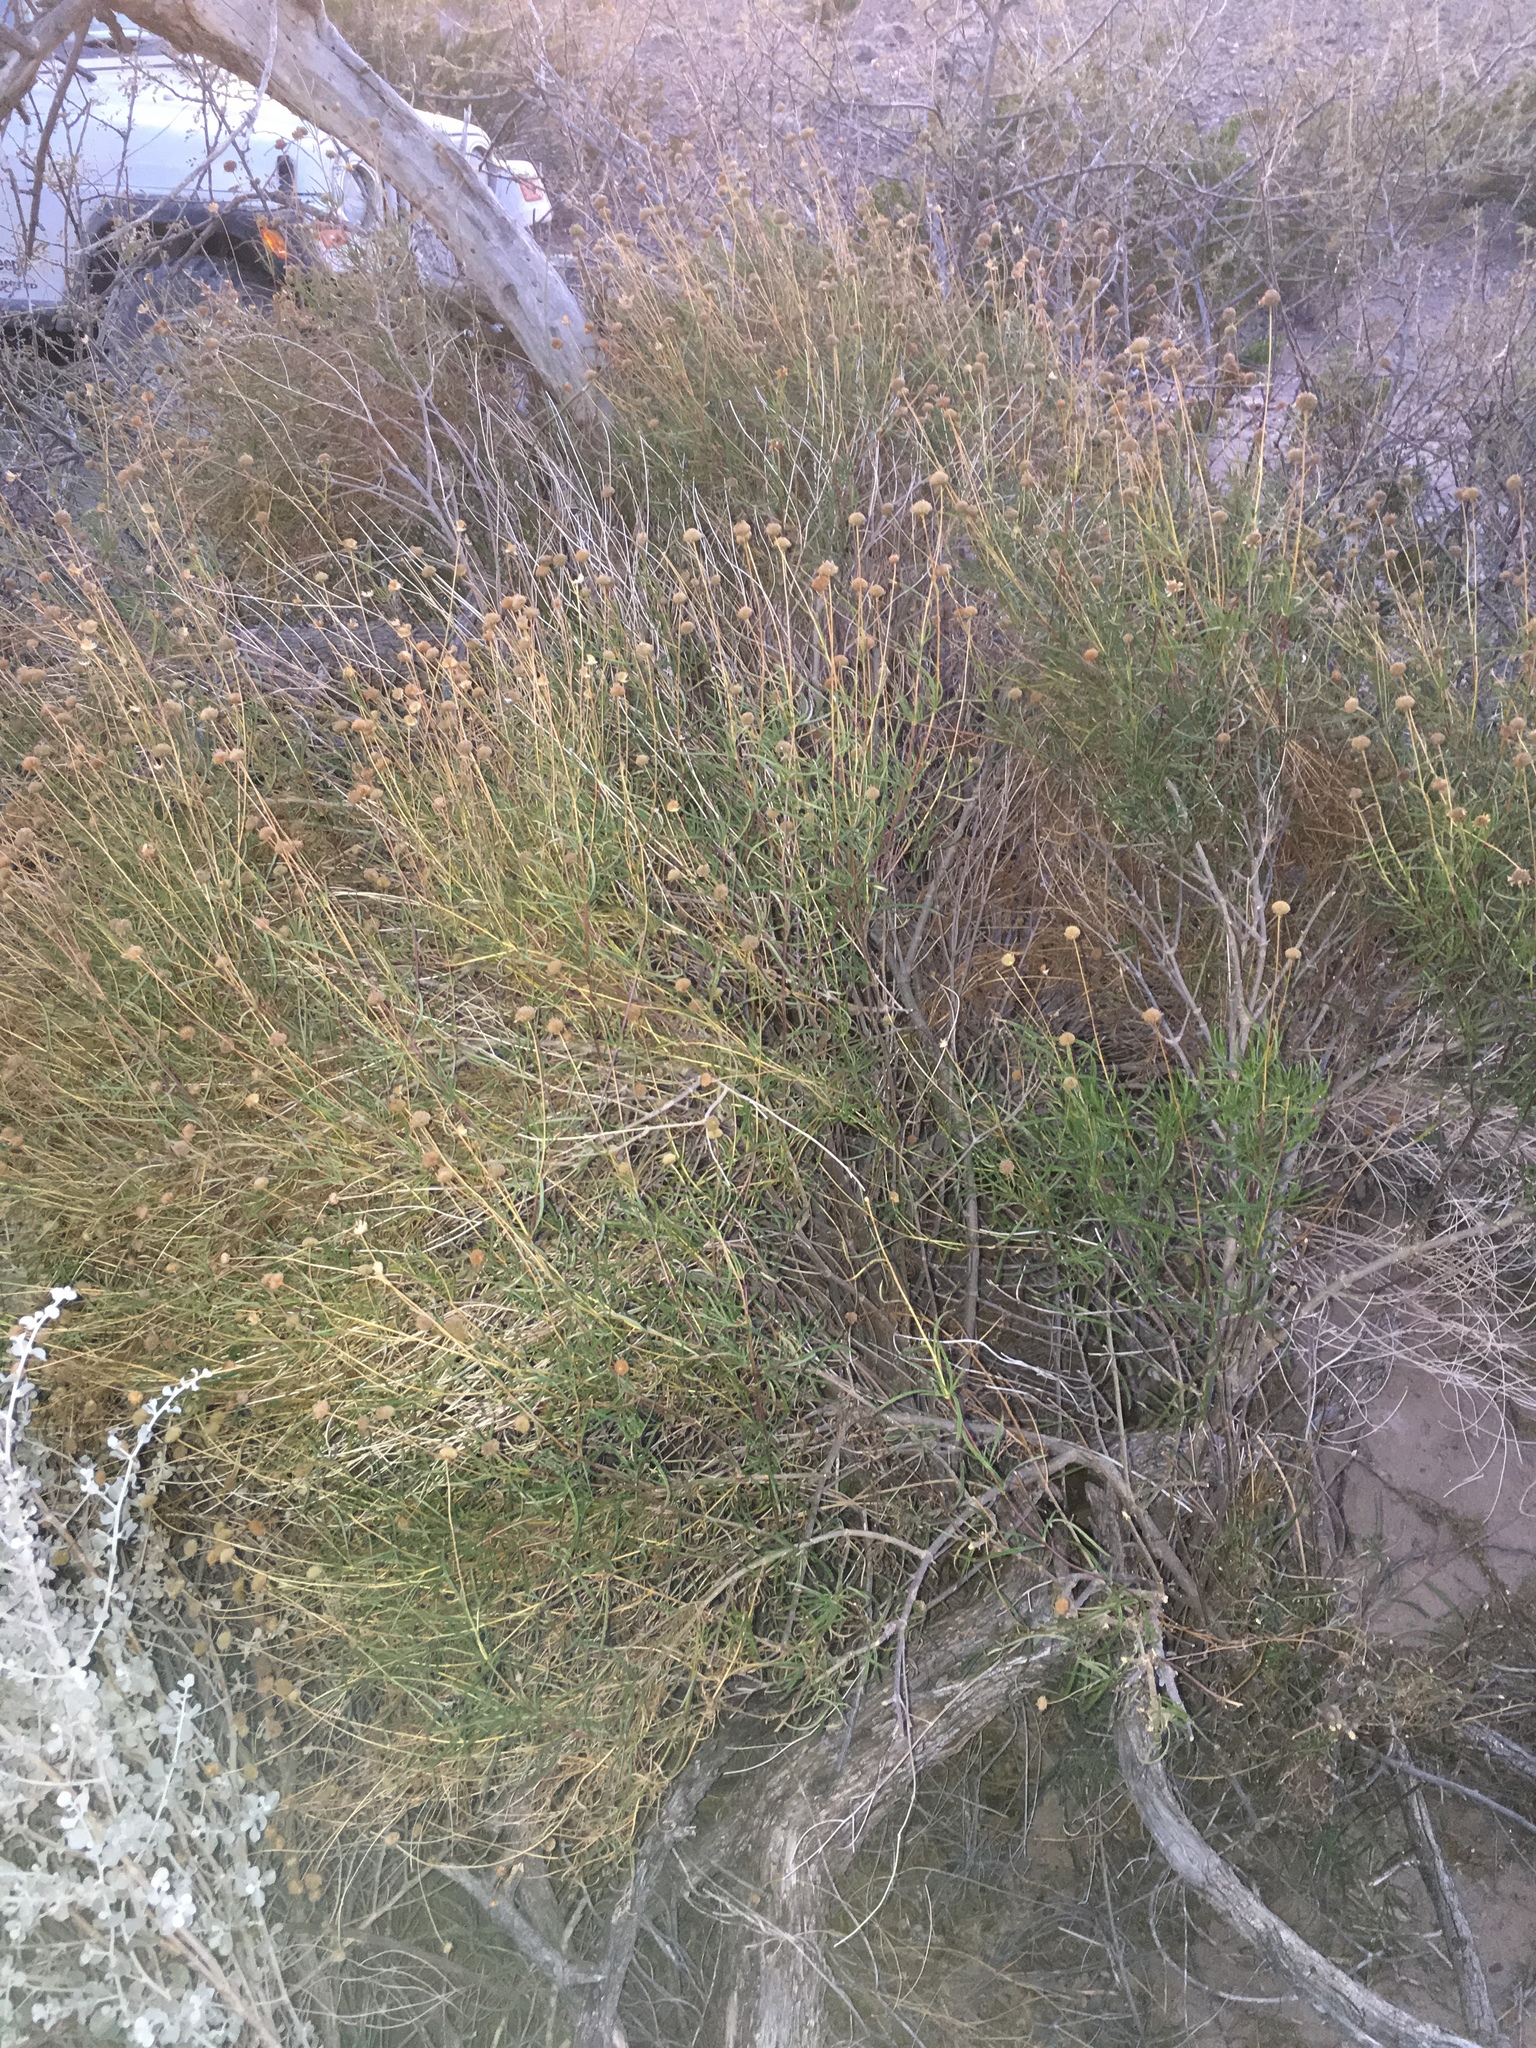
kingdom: Plantae
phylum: Tracheophyta
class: Magnoliopsida
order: Asterales
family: Asteraceae
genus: Sidneya
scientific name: Sidneya tenuifolia
